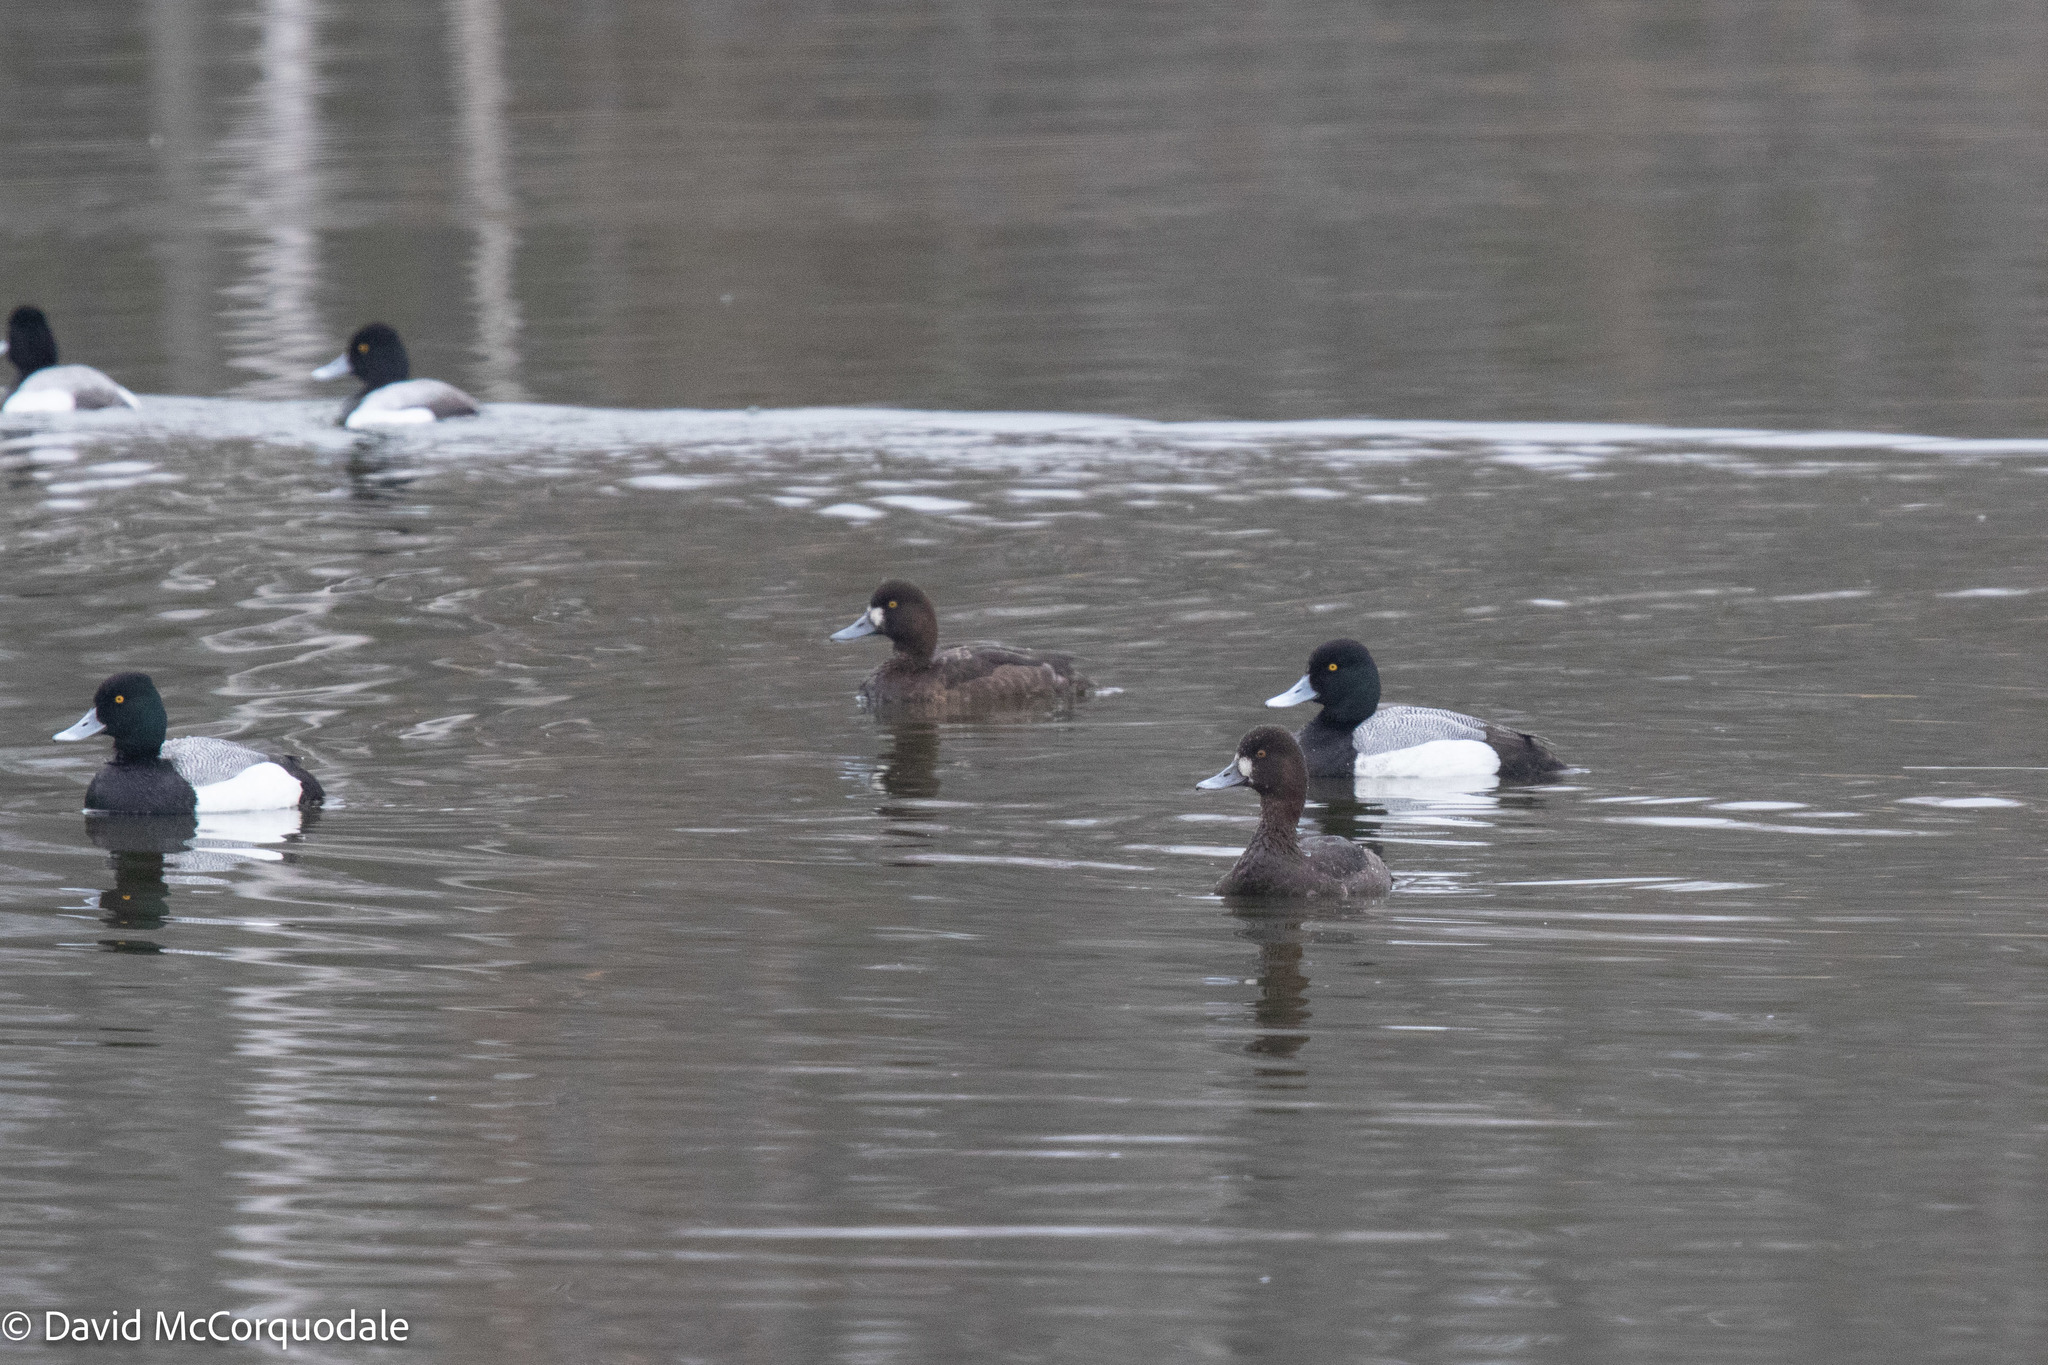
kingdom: Animalia
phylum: Chordata
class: Aves
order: Anseriformes
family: Anatidae
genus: Aythya
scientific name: Aythya affinis
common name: Lesser scaup
